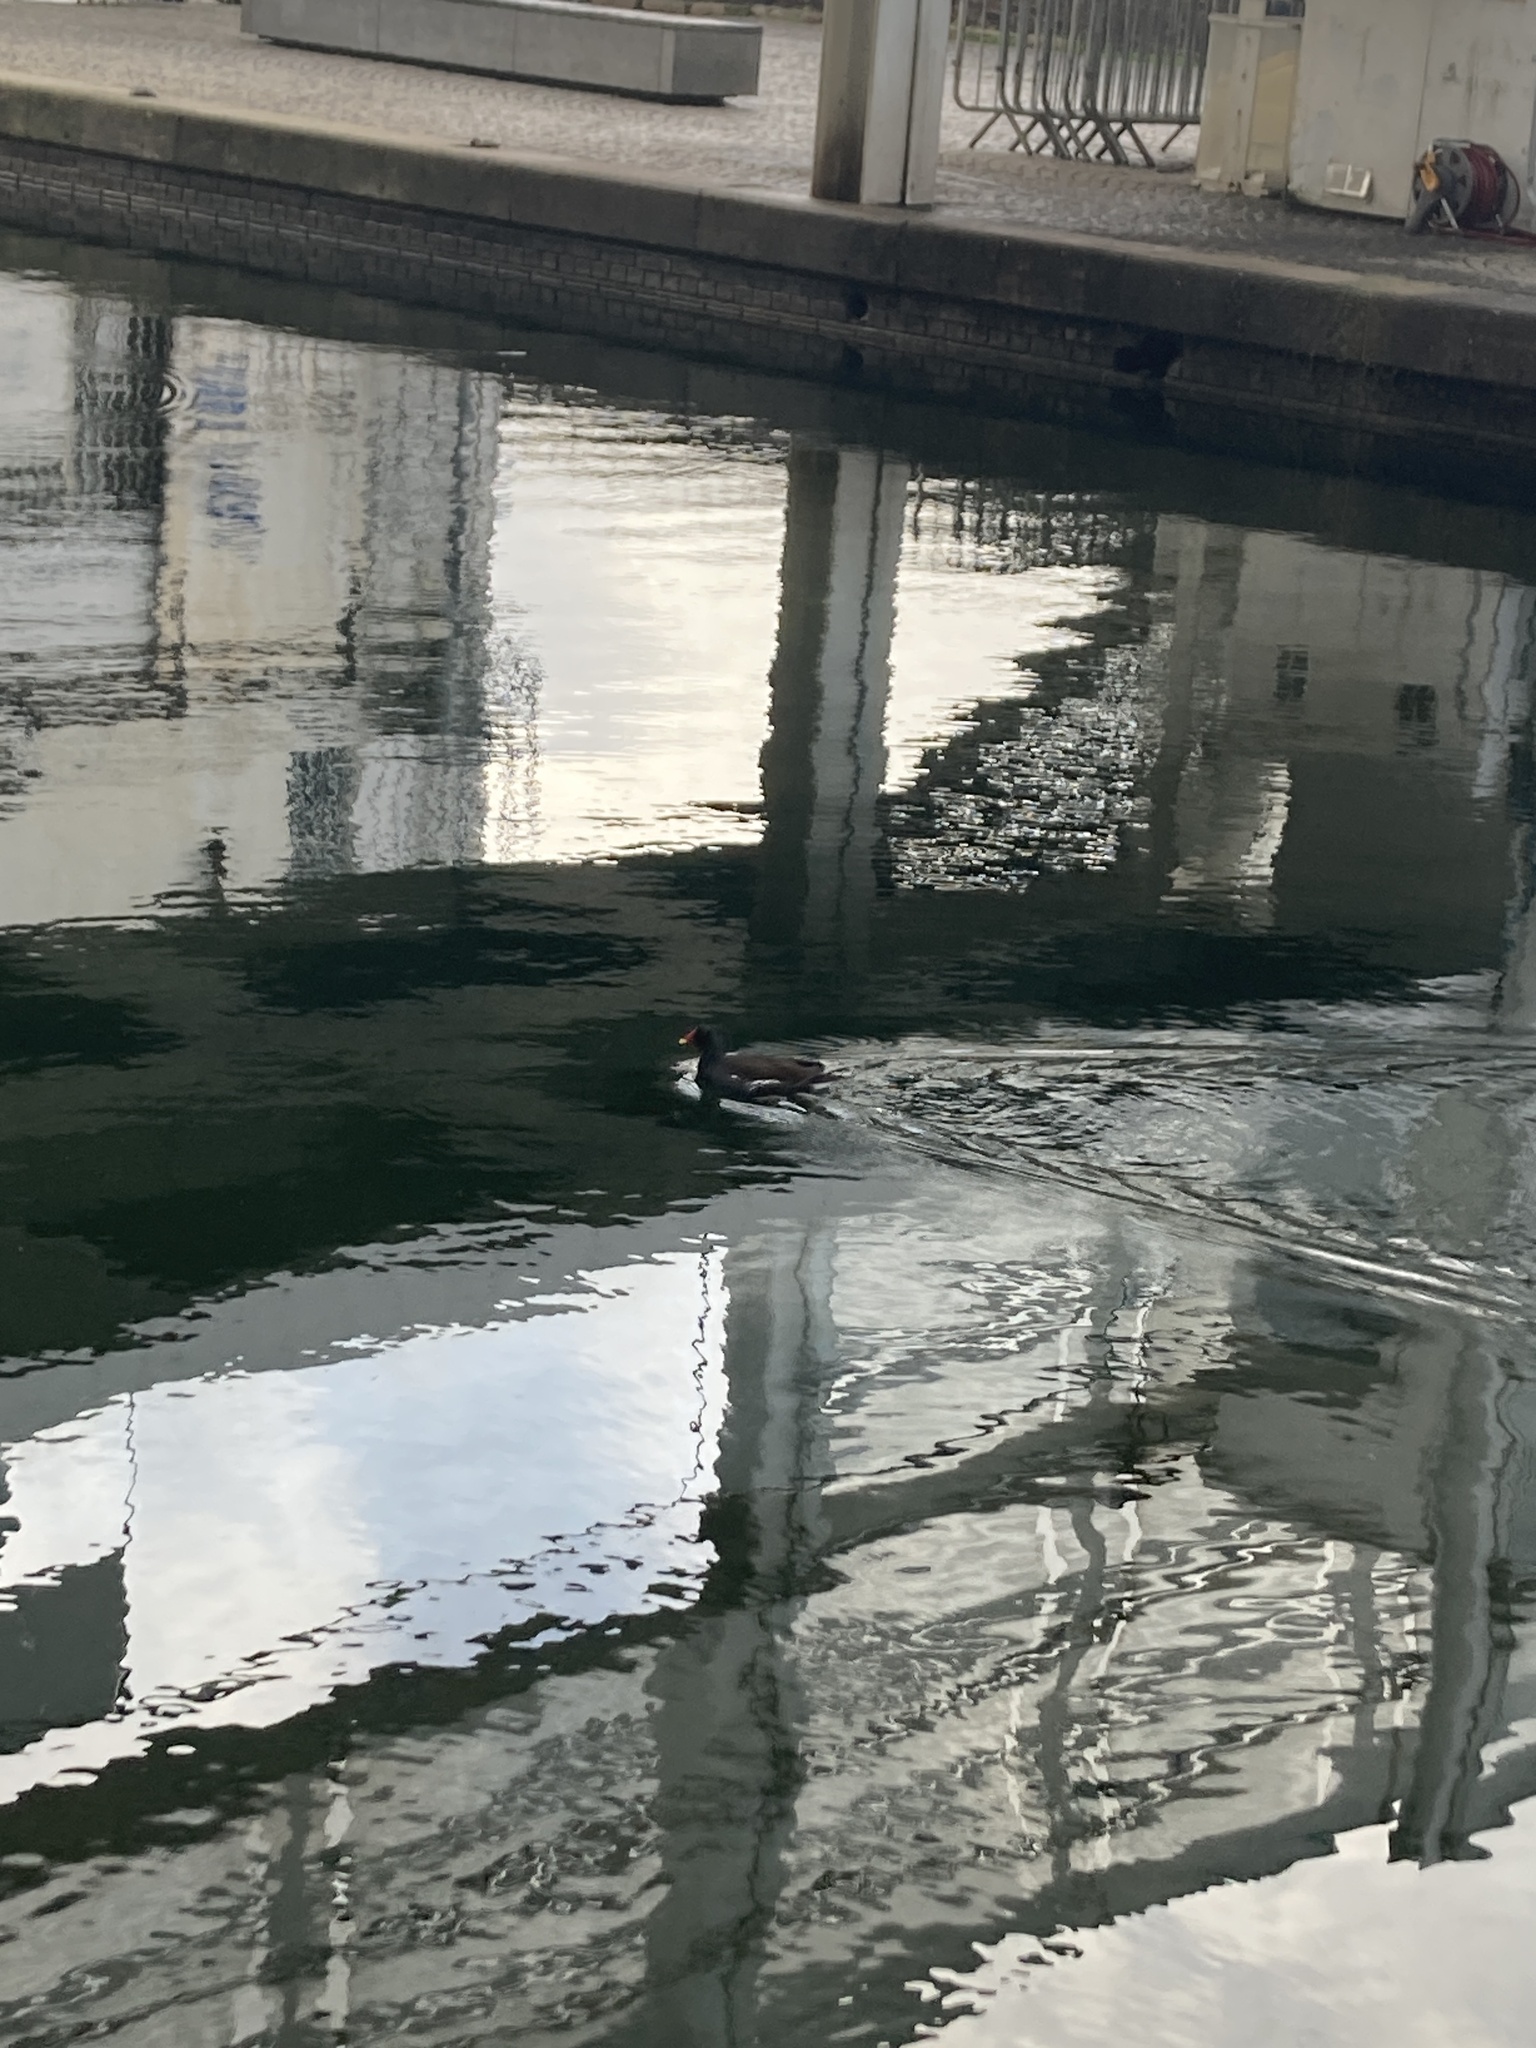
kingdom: Animalia
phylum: Chordata
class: Aves
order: Gruiformes
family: Rallidae
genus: Gallinula
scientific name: Gallinula chloropus
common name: Common moorhen
